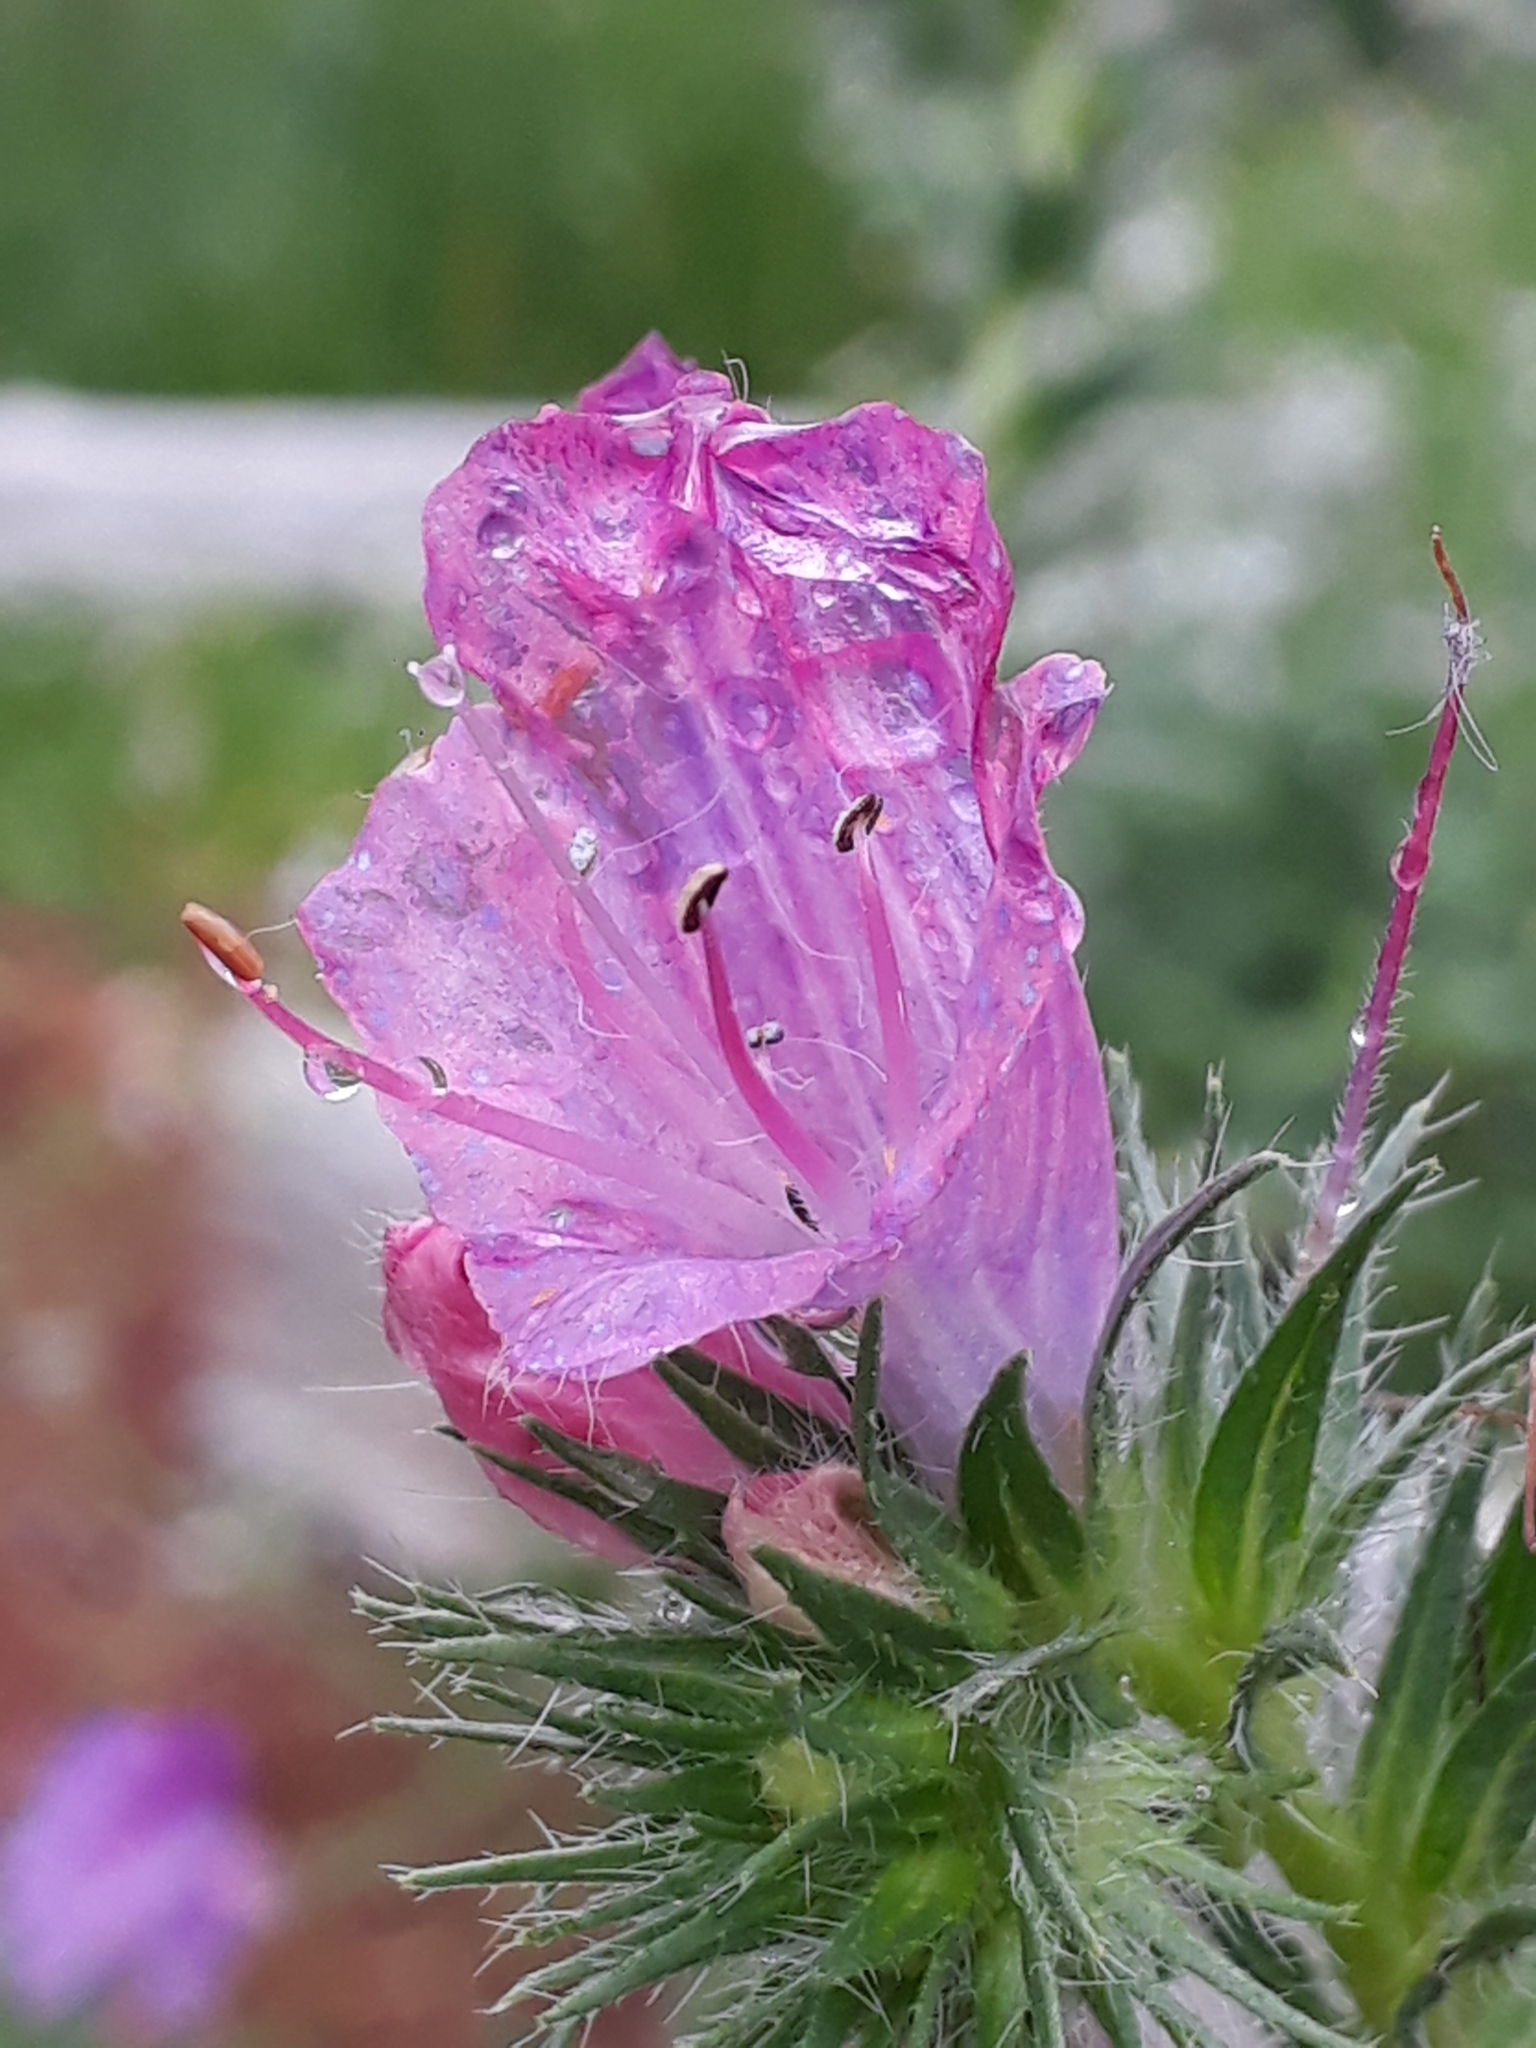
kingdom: Plantae
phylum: Tracheophyta
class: Magnoliopsida
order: Boraginales
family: Boraginaceae
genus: Echium
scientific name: Echium plantagineum
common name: Purple viper's-bugloss
